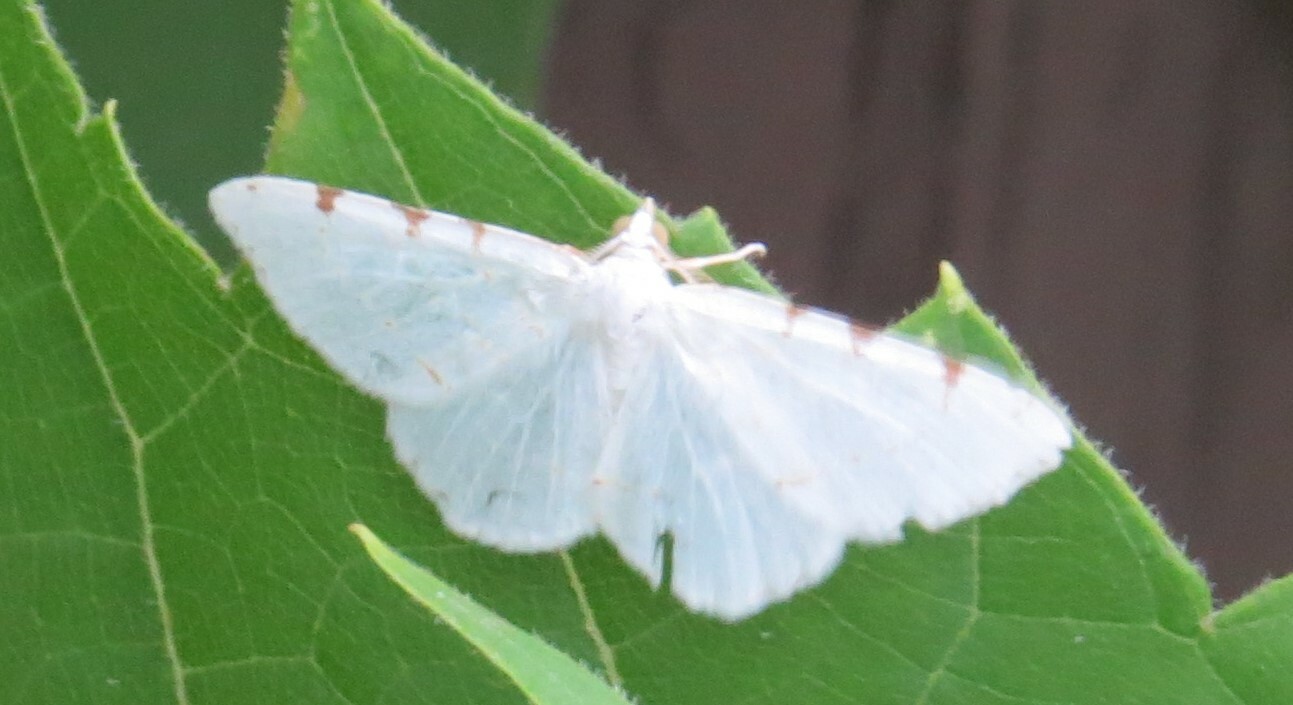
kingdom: Animalia
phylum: Arthropoda
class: Insecta
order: Lepidoptera
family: Geometridae
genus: Macaria
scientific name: Macaria pustularia
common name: Lesser maple spanworm moth
